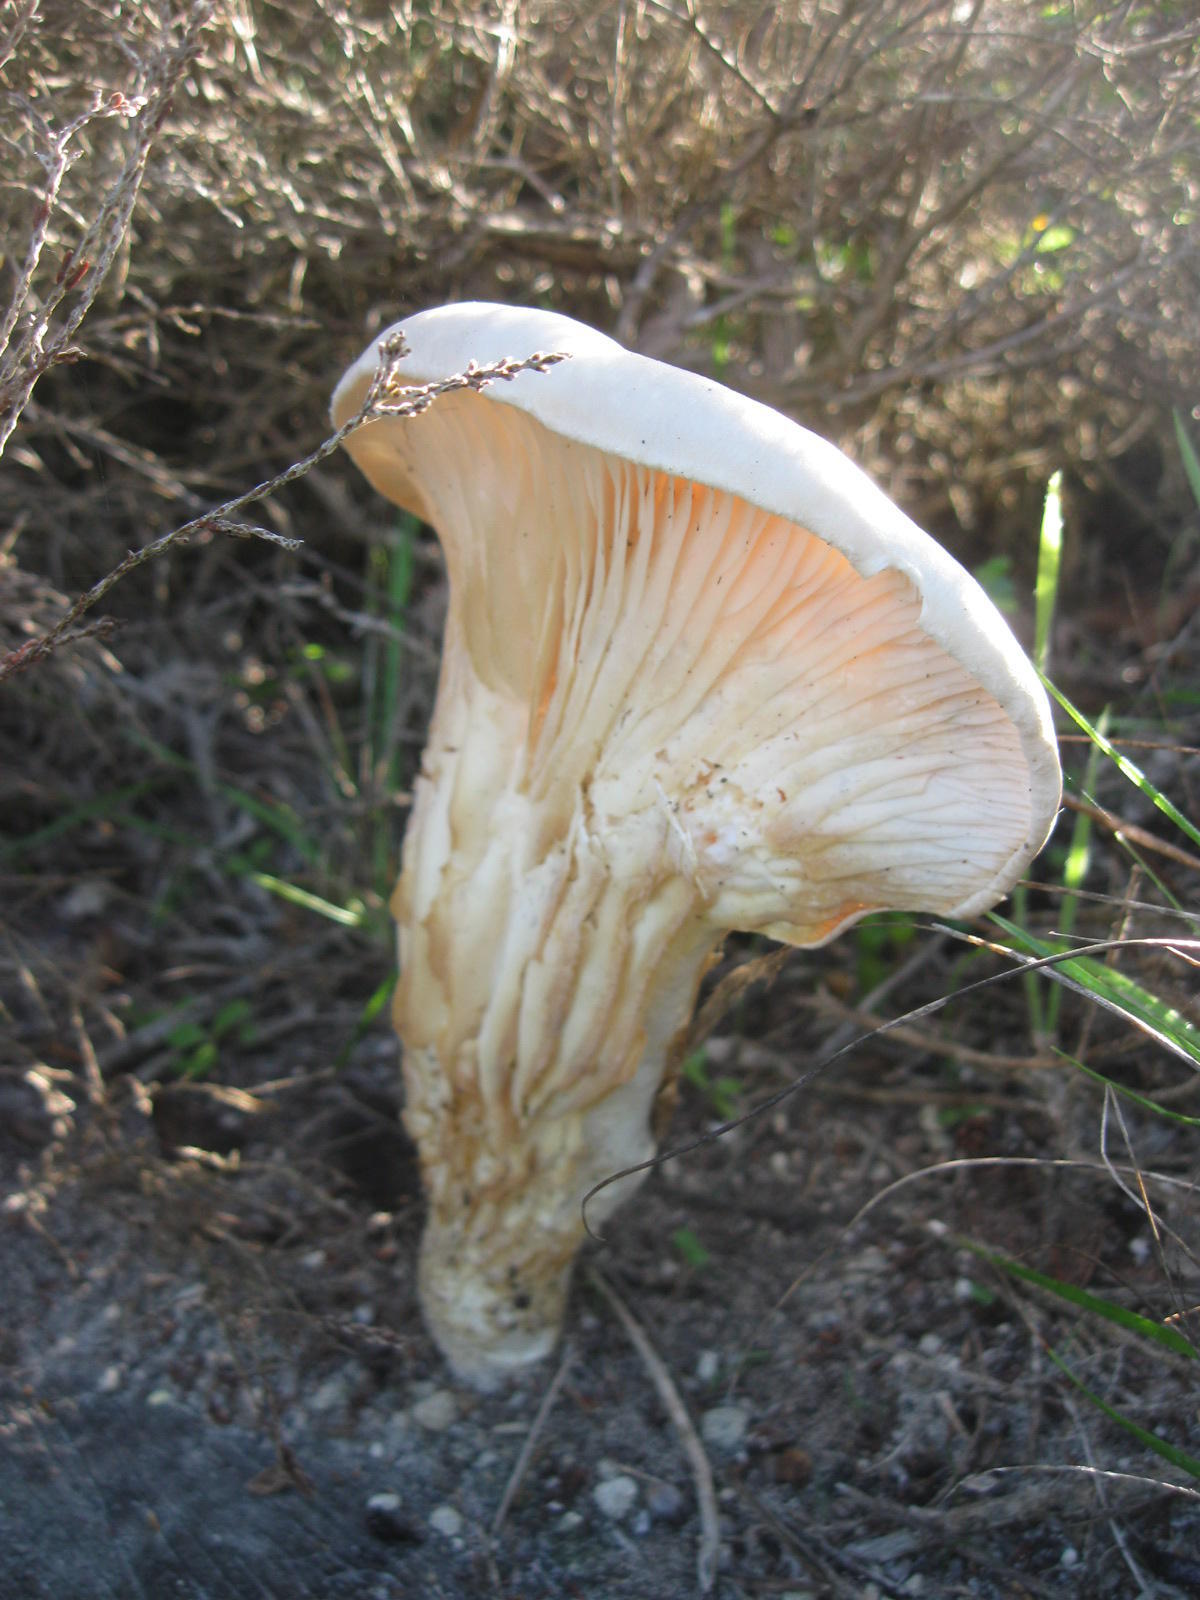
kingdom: Fungi
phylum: Basidiomycota
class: Agaricomycetes
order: Polyporales
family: Polyporaceae
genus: Lentinus
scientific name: Lentinus sajor-caju
